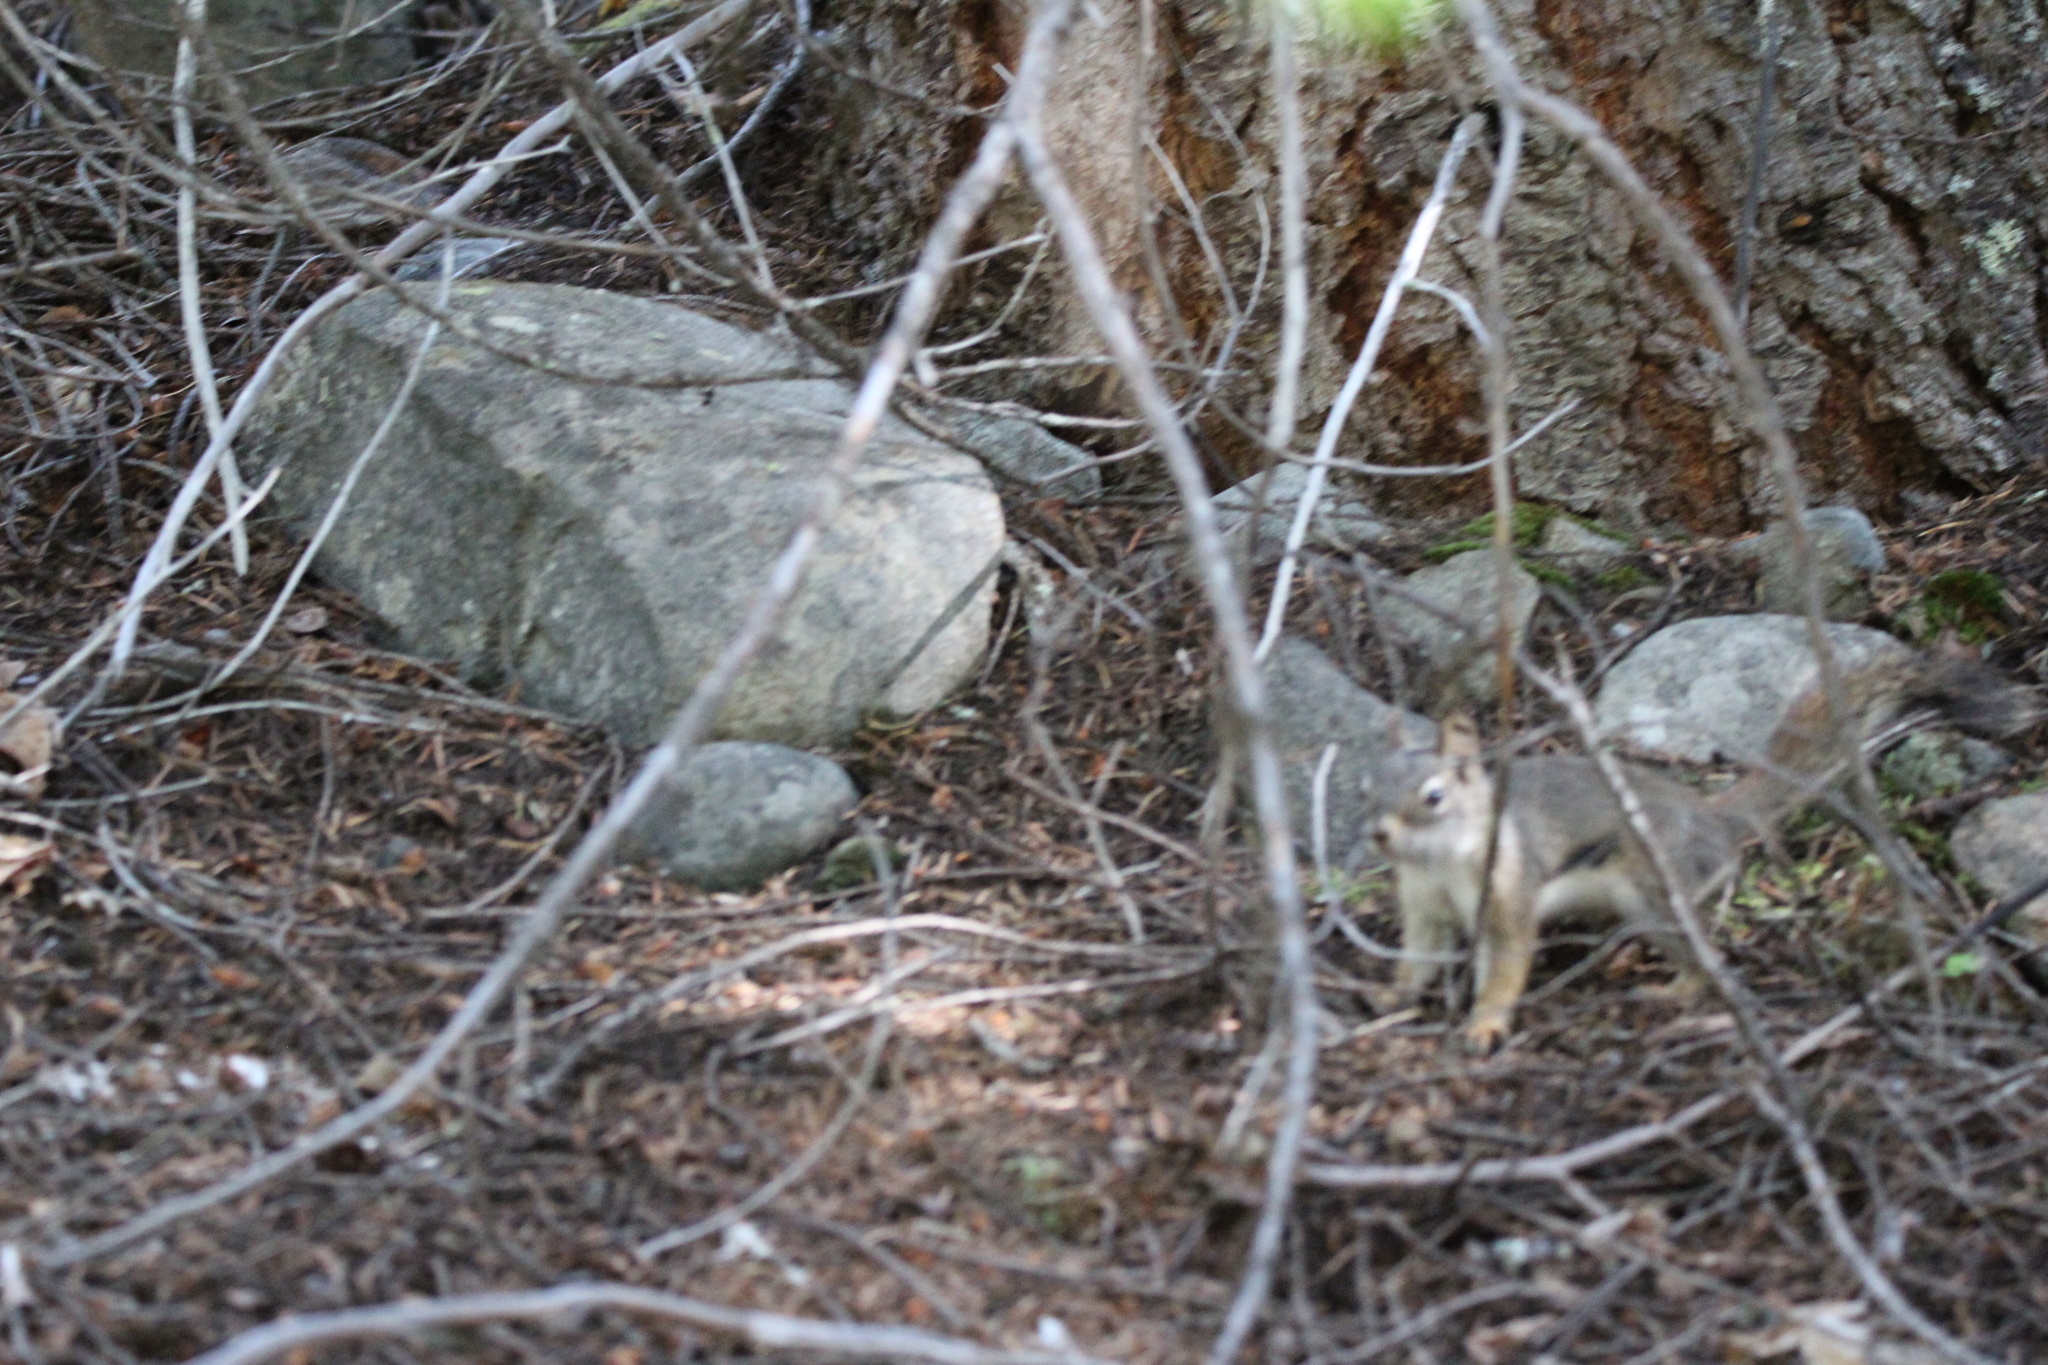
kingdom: Animalia
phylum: Chordata
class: Mammalia
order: Rodentia
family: Sciuridae
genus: Tamiasciurus
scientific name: Tamiasciurus hudsonicus
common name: Red squirrel
